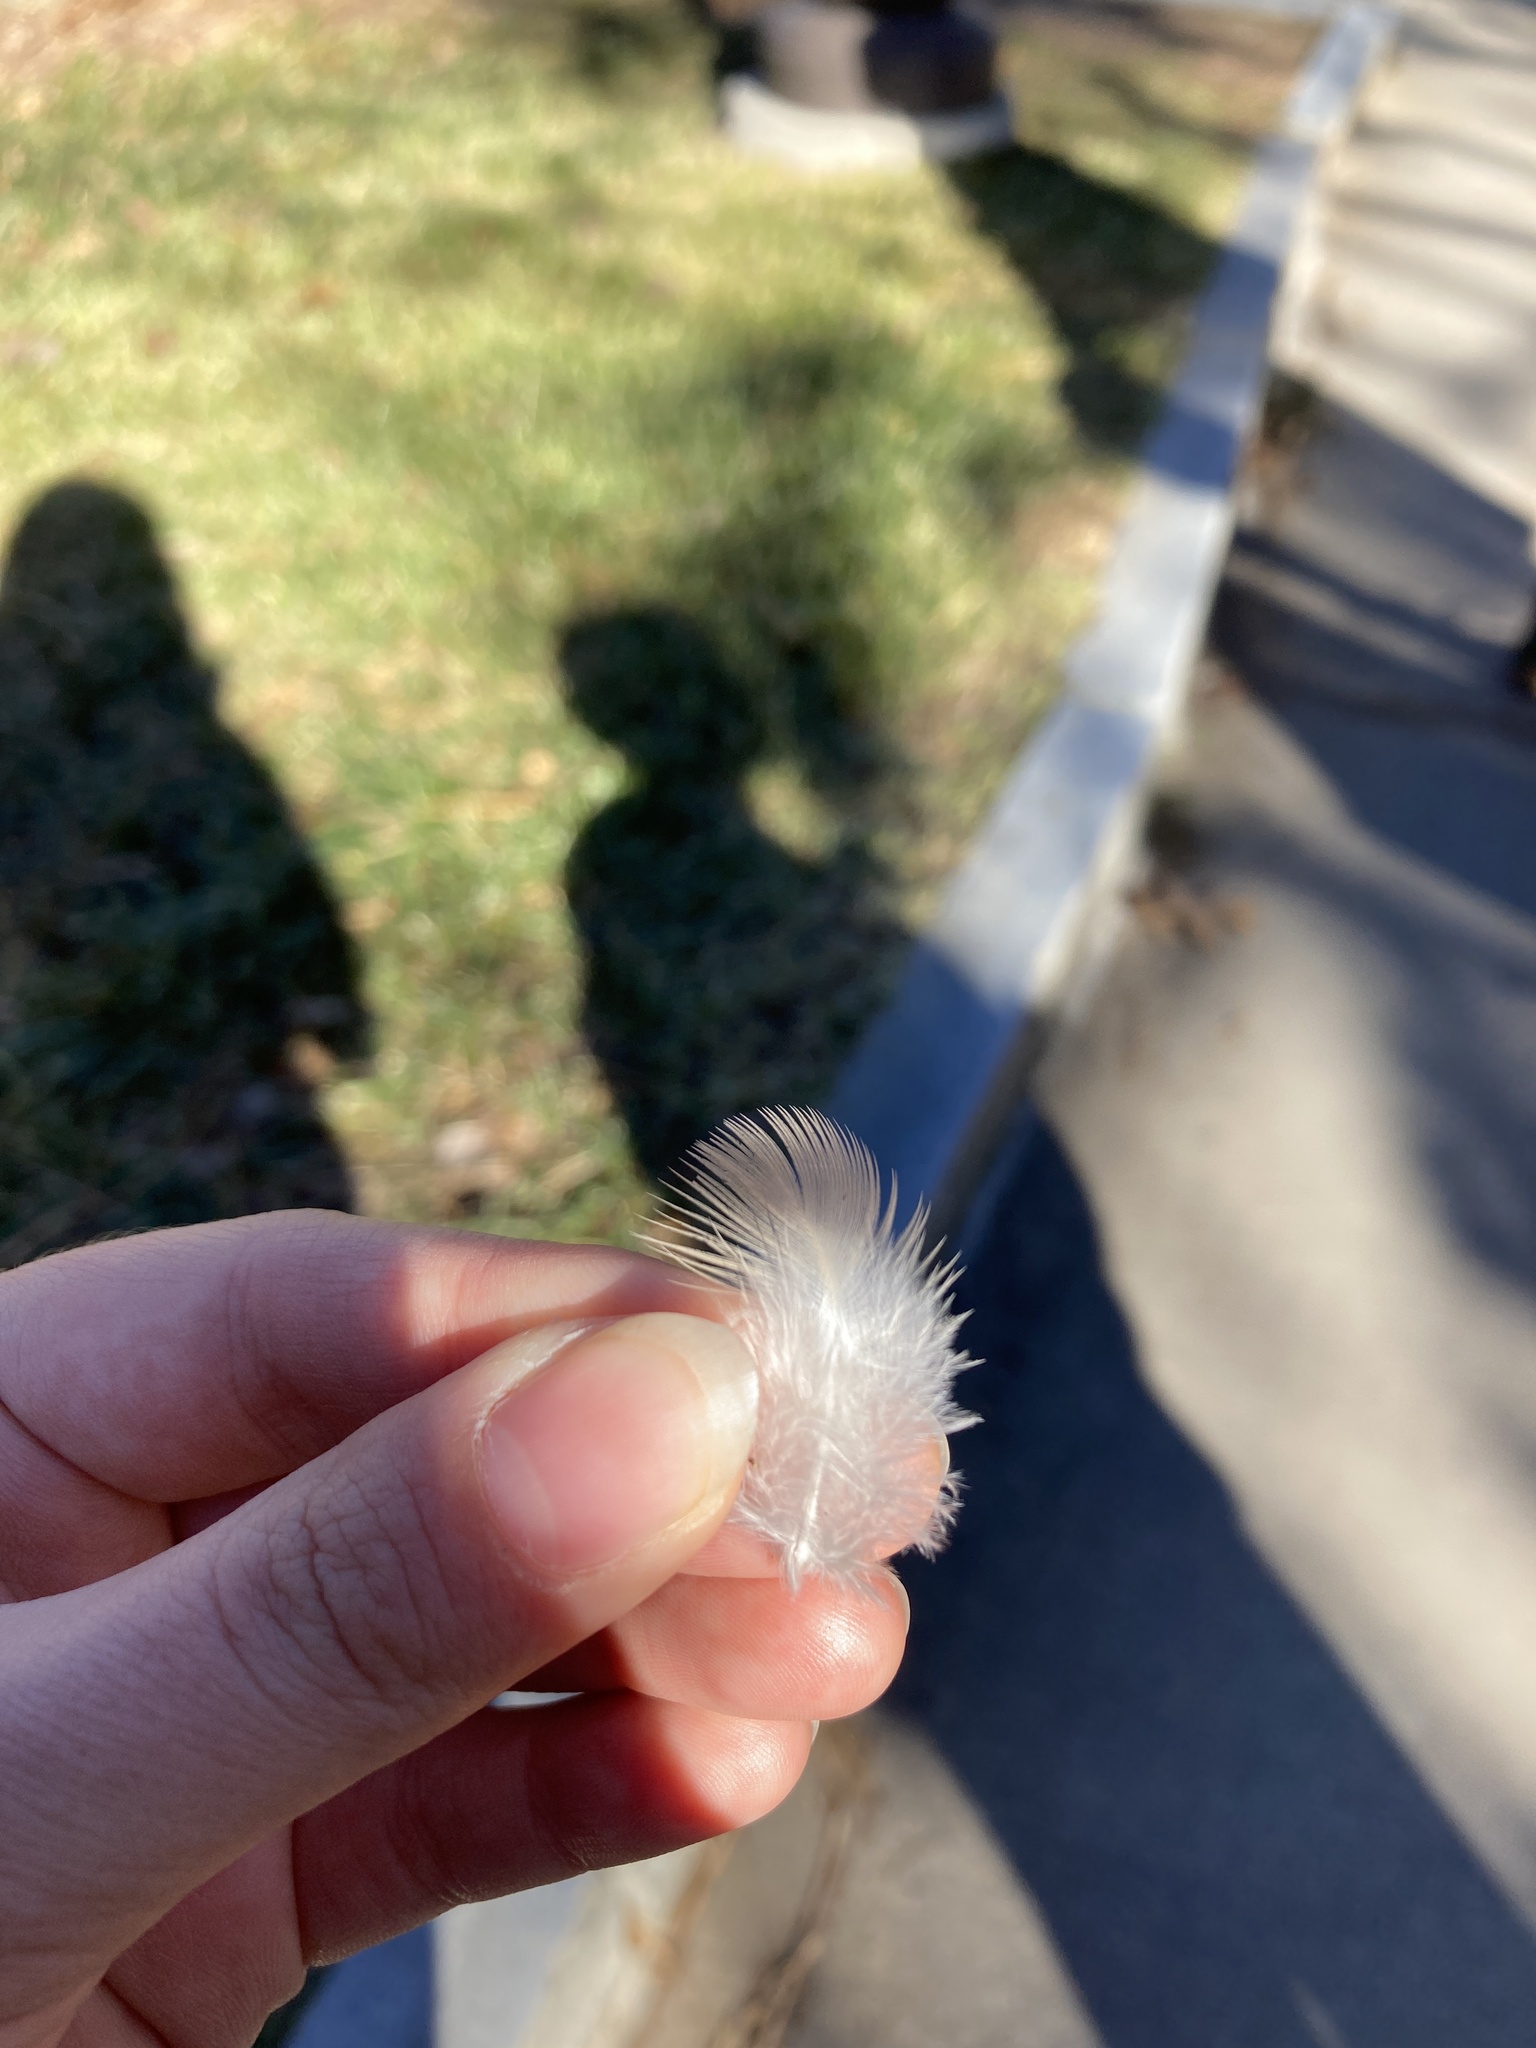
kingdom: Animalia
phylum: Chordata
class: Aves
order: Columbiformes
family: Columbidae
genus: Zenaida
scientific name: Zenaida macroura
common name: Mourning dove
